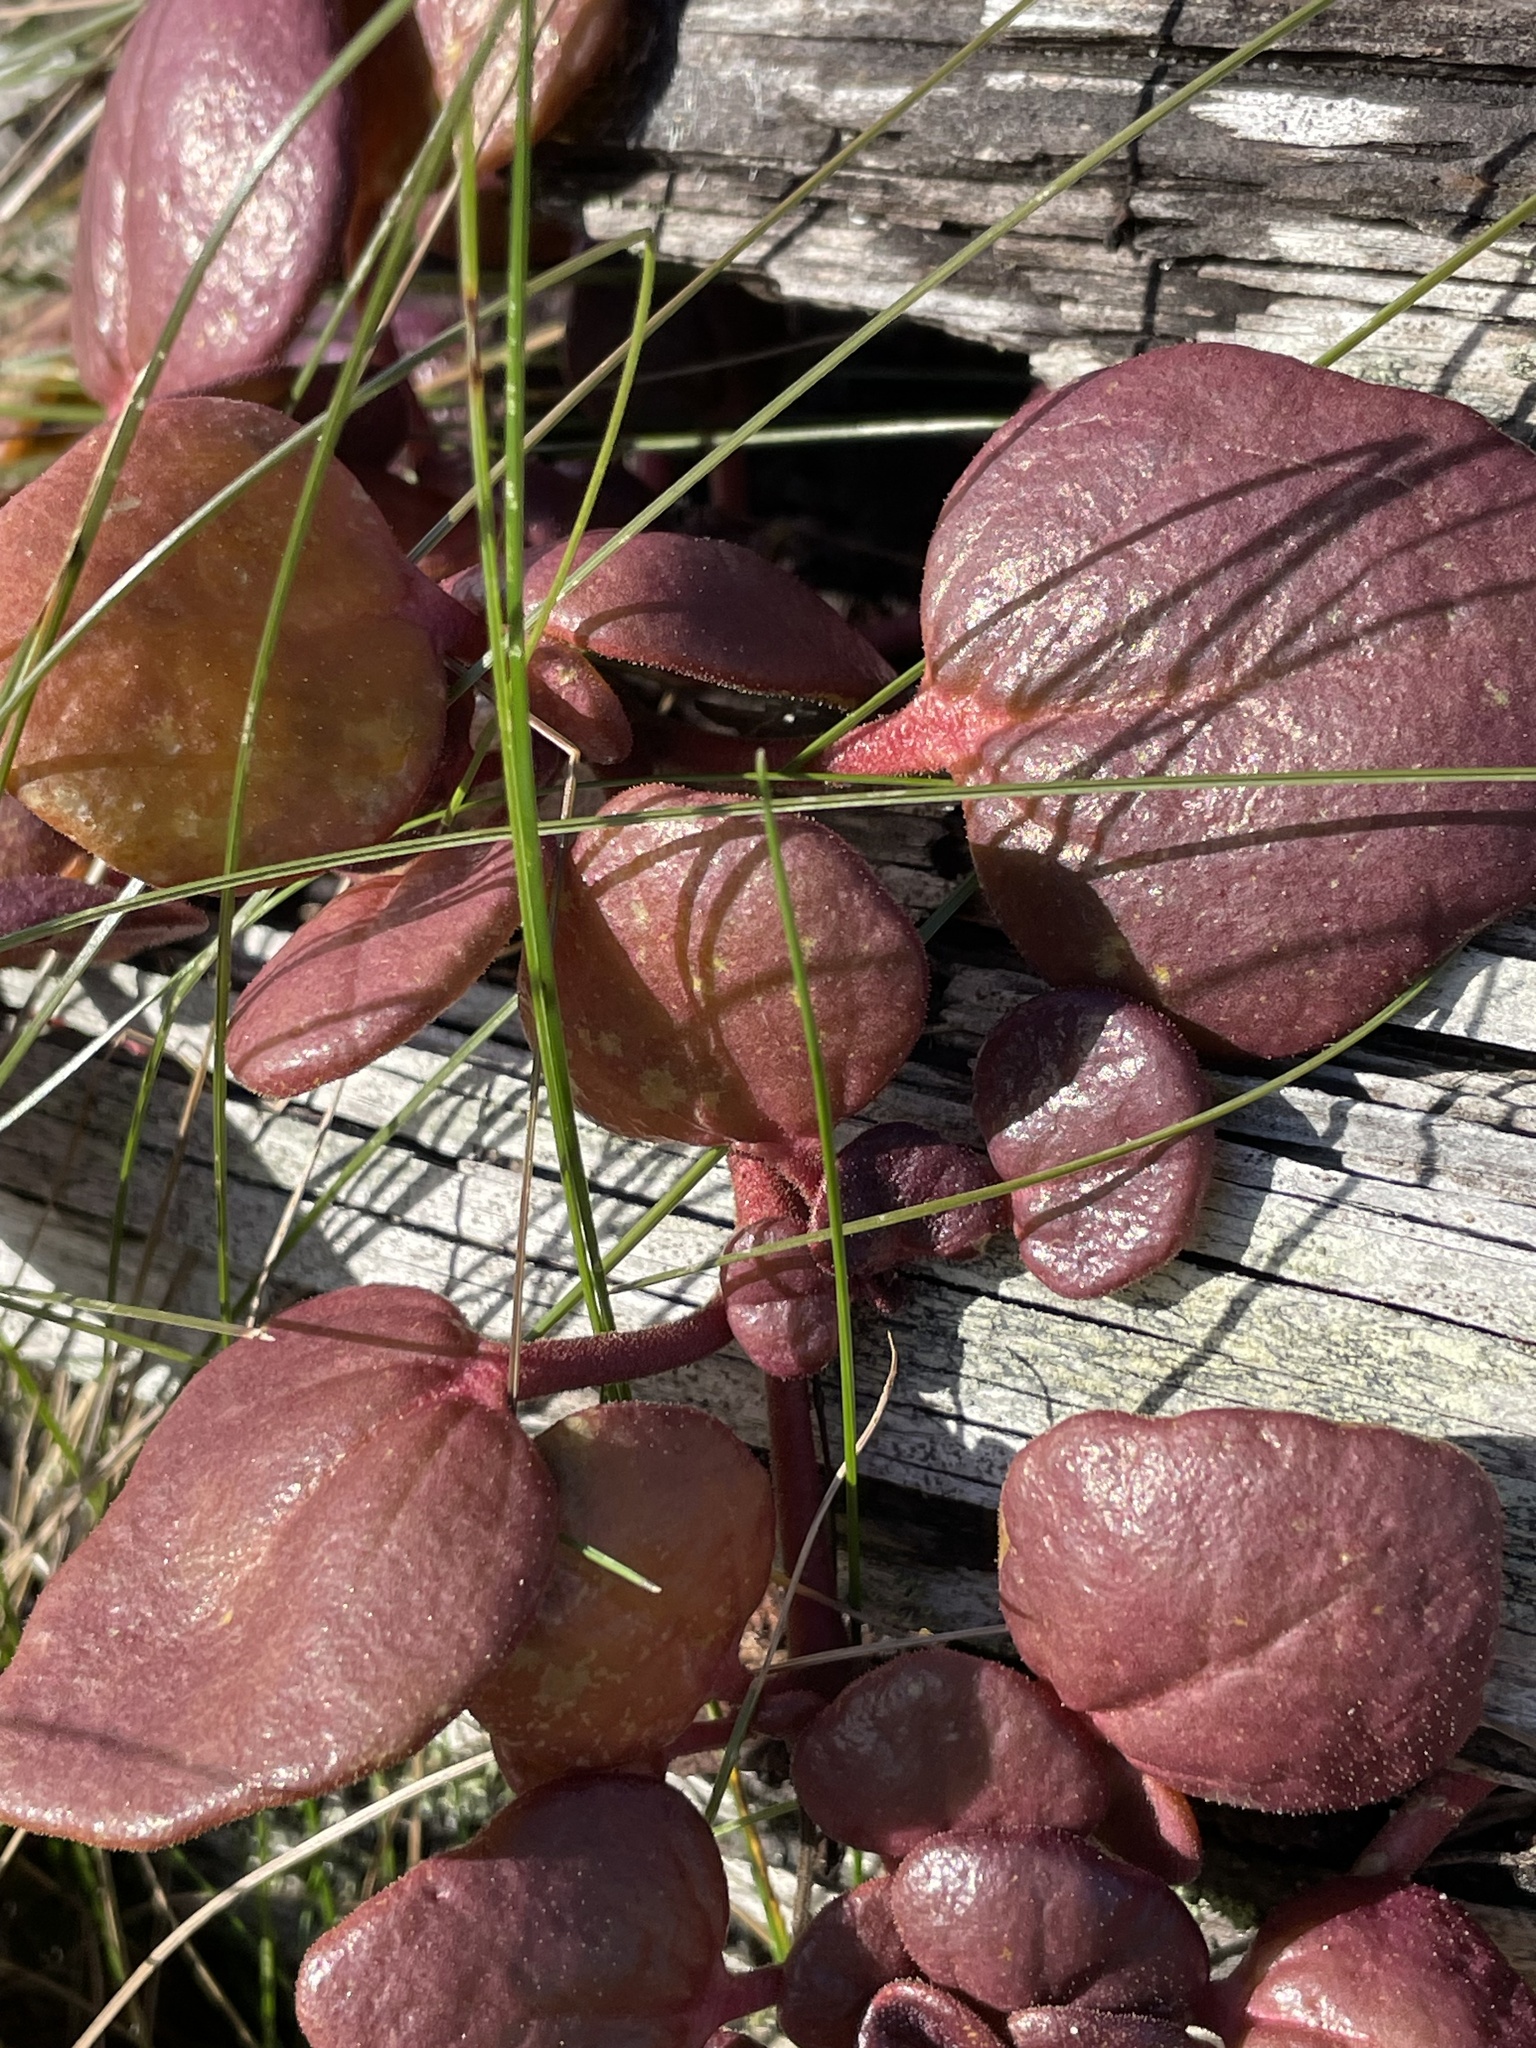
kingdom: Plantae
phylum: Tracheophyta
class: Magnoliopsida
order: Caryophyllales
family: Nyctaginaceae
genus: Abronia
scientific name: Abronia latifolia
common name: Yellow sand-verbena
